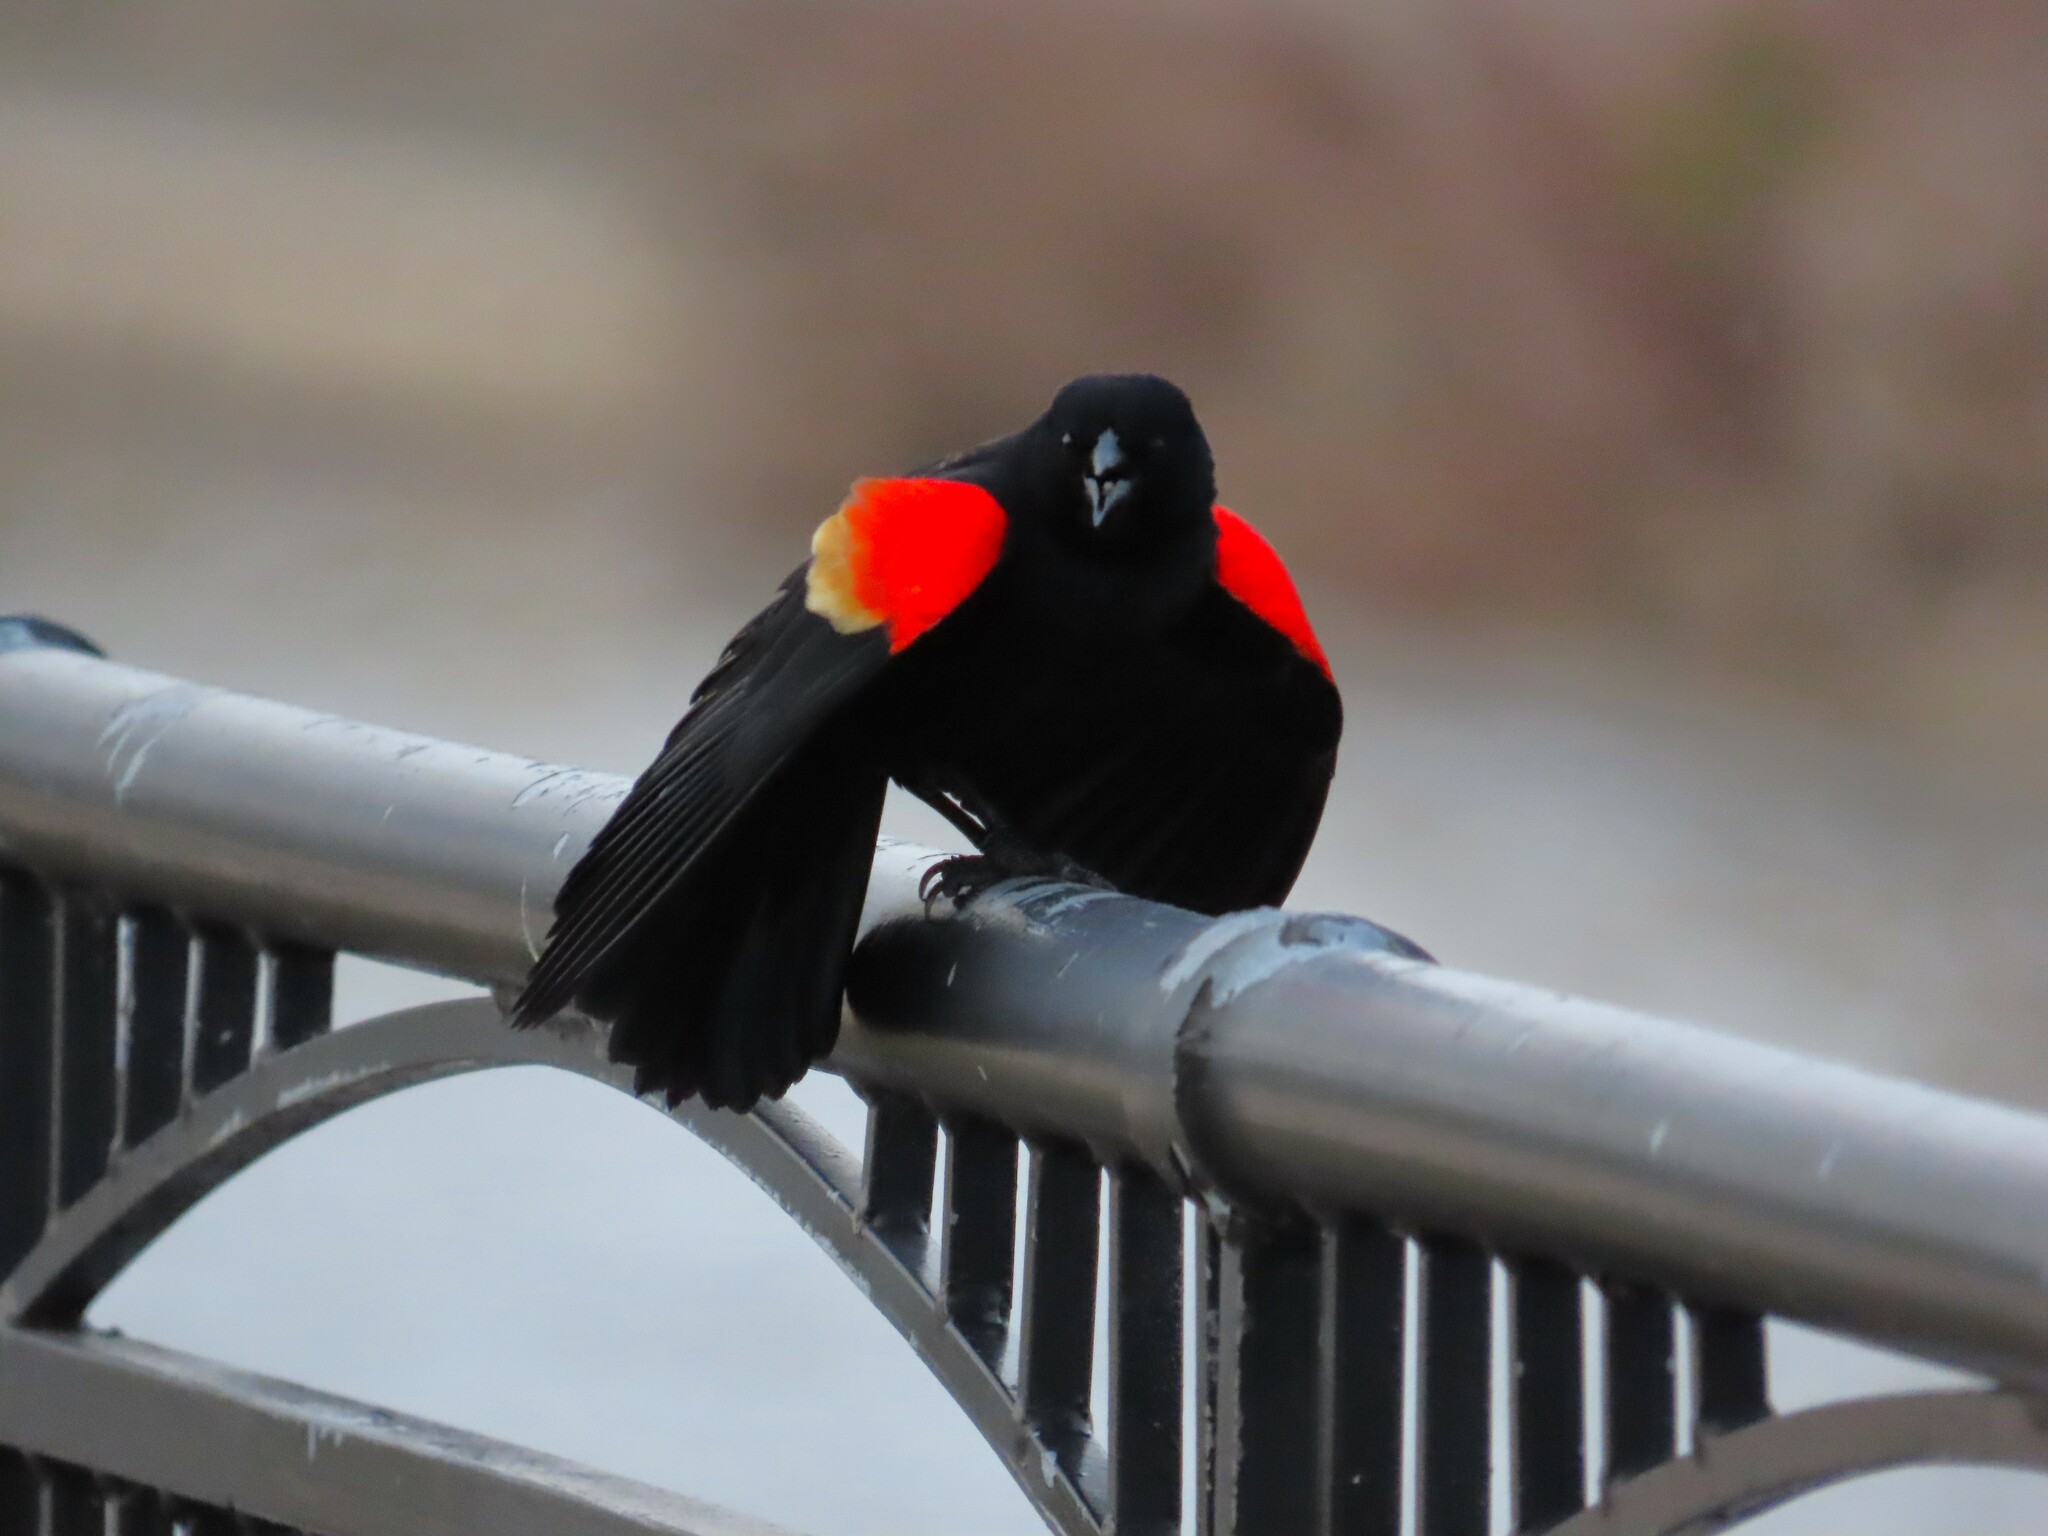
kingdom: Animalia
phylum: Chordata
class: Aves
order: Passeriformes
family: Icteridae
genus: Agelaius
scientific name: Agelaius phoeniceus
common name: Red-winged blackbird
